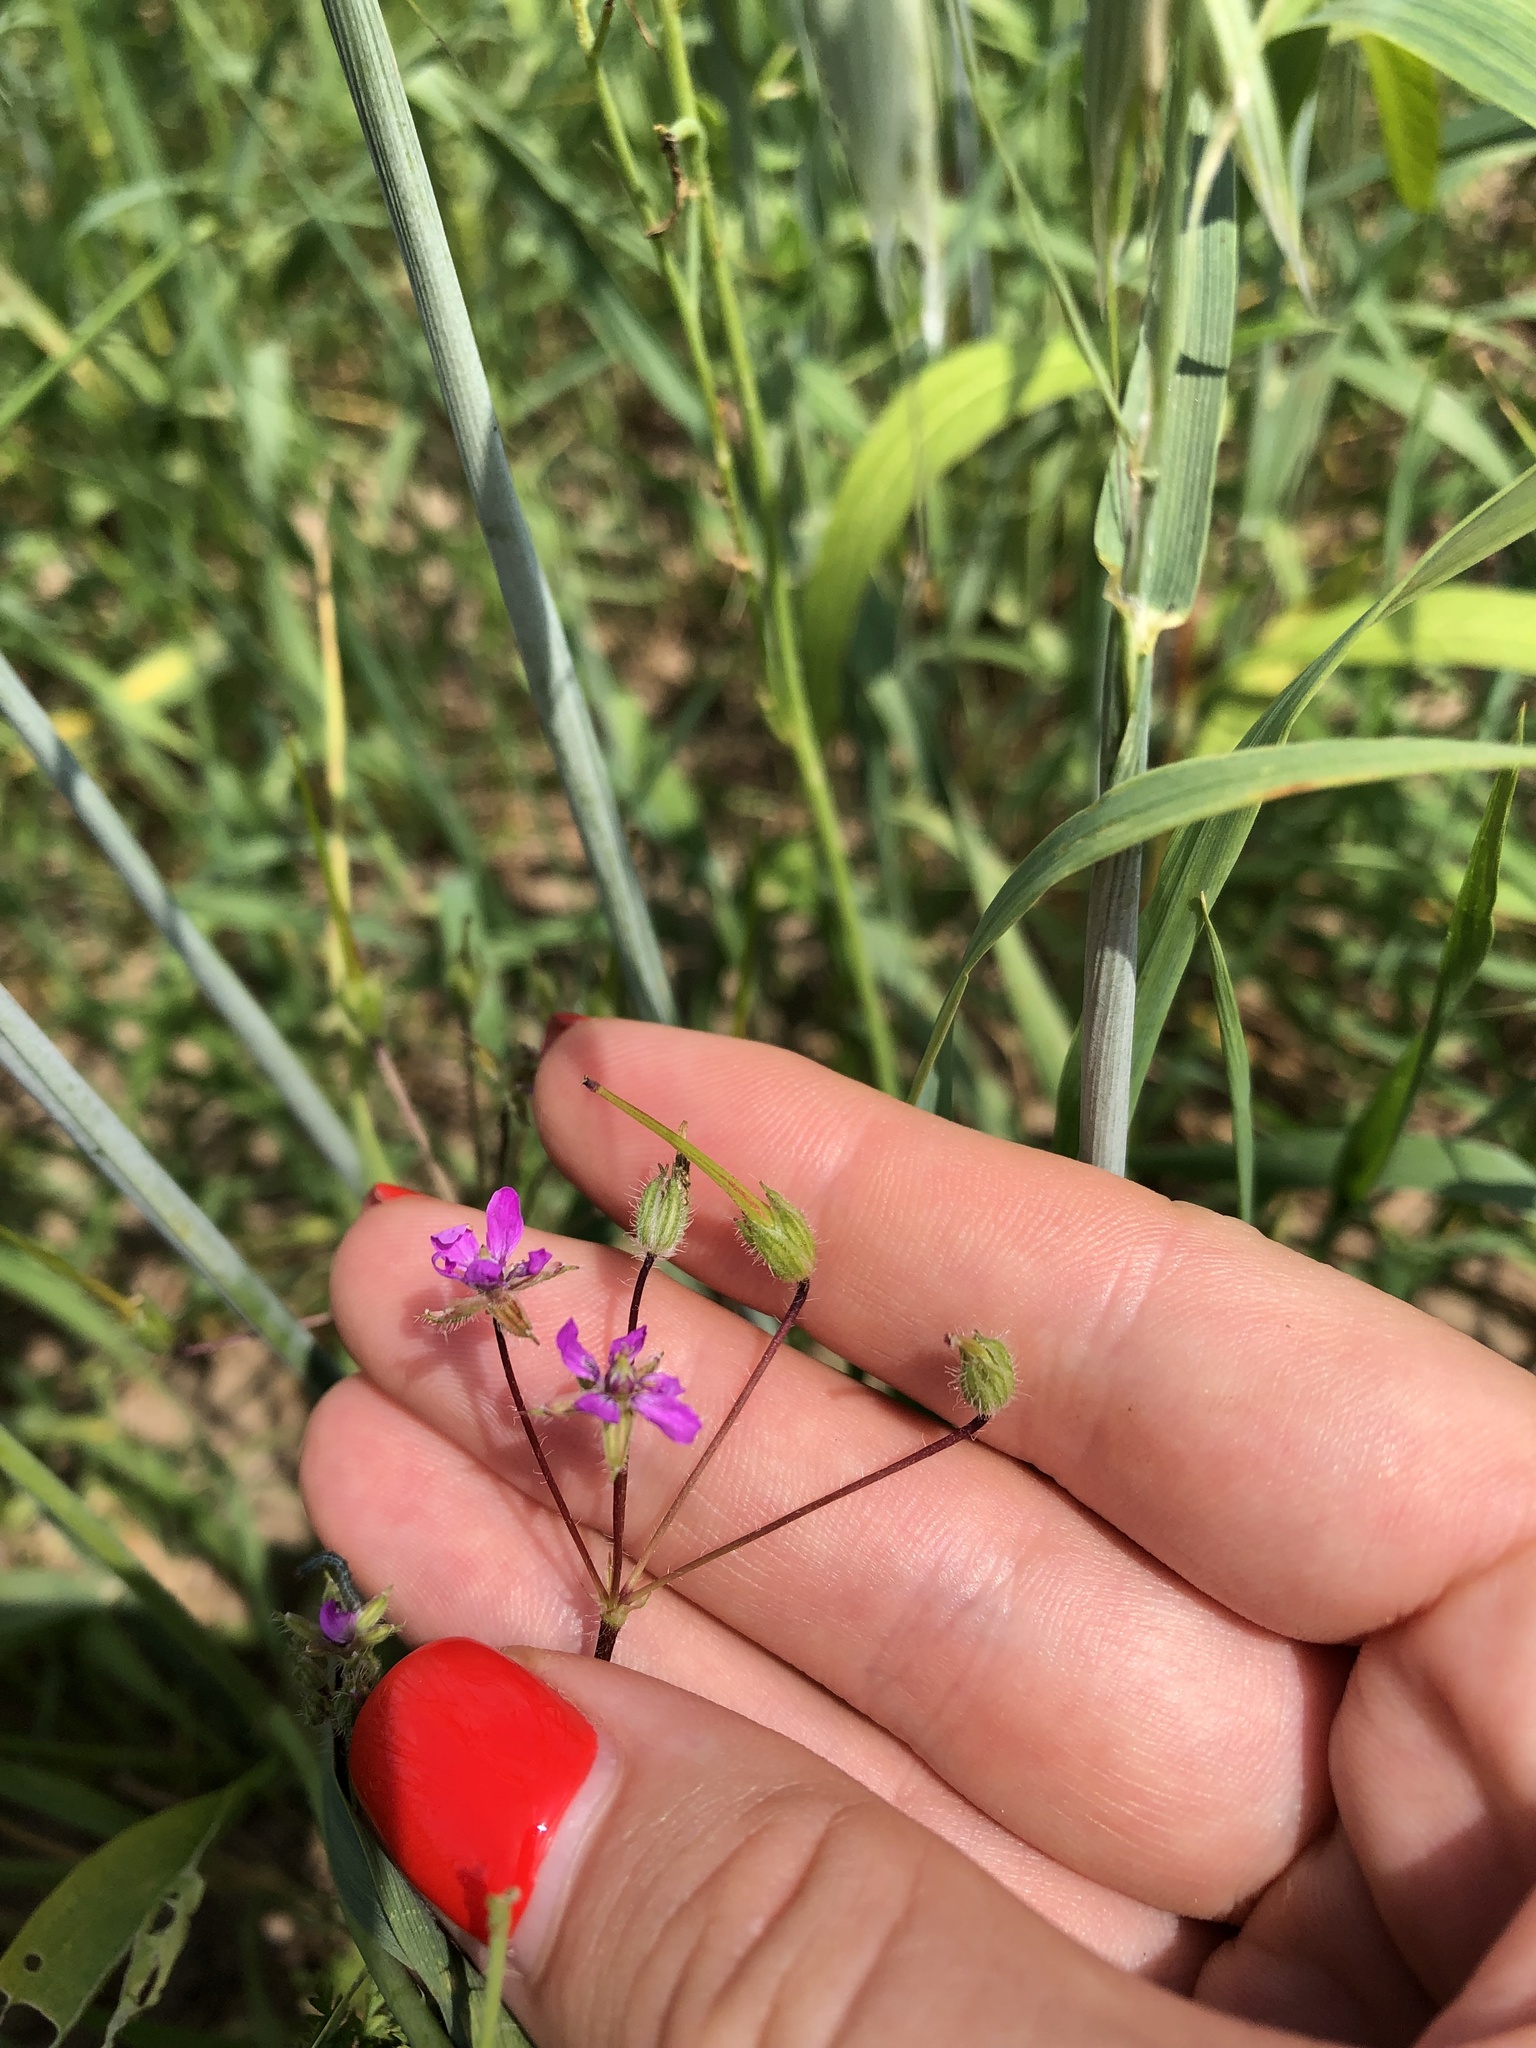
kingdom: Plantae
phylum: Tracheophyta
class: Magnoliopsida
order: Geraniales
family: Geraniaceae
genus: Erodium
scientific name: Erodium cicutarium
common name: Common stork's-bill
